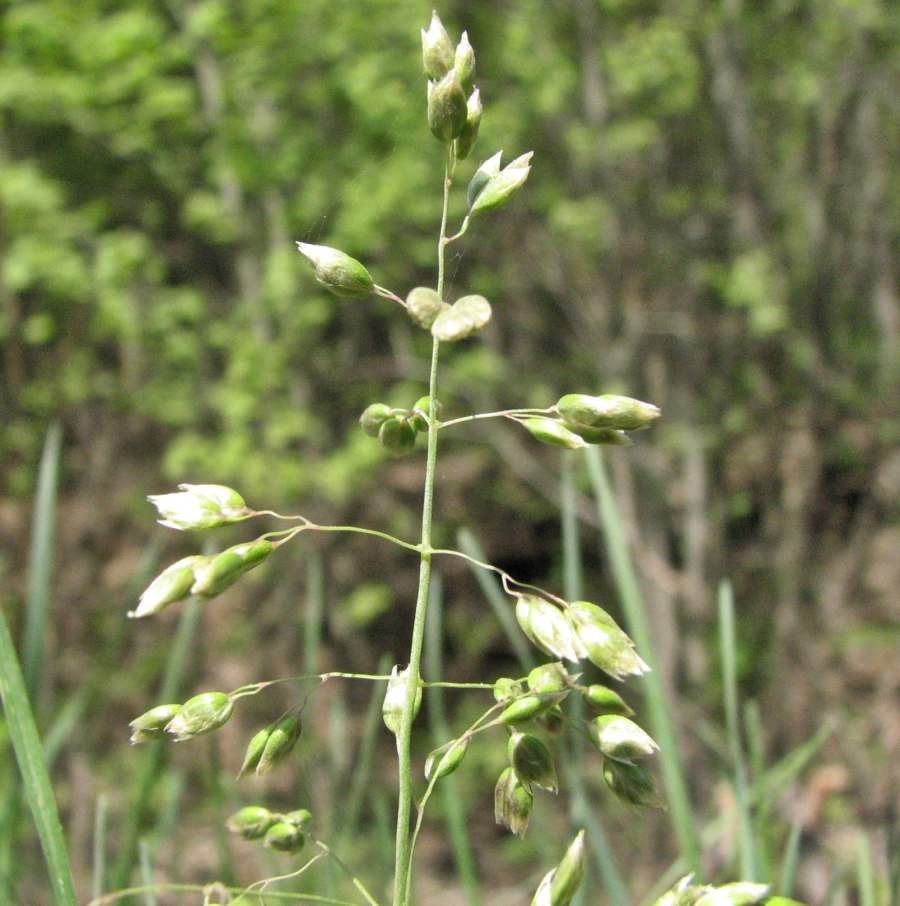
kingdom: Plantae
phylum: Tracheophyta
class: Liliopsida
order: Poales
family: Poaceae
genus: Anthoxanthum
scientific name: Anthoxanthum nitens
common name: Holy grass
